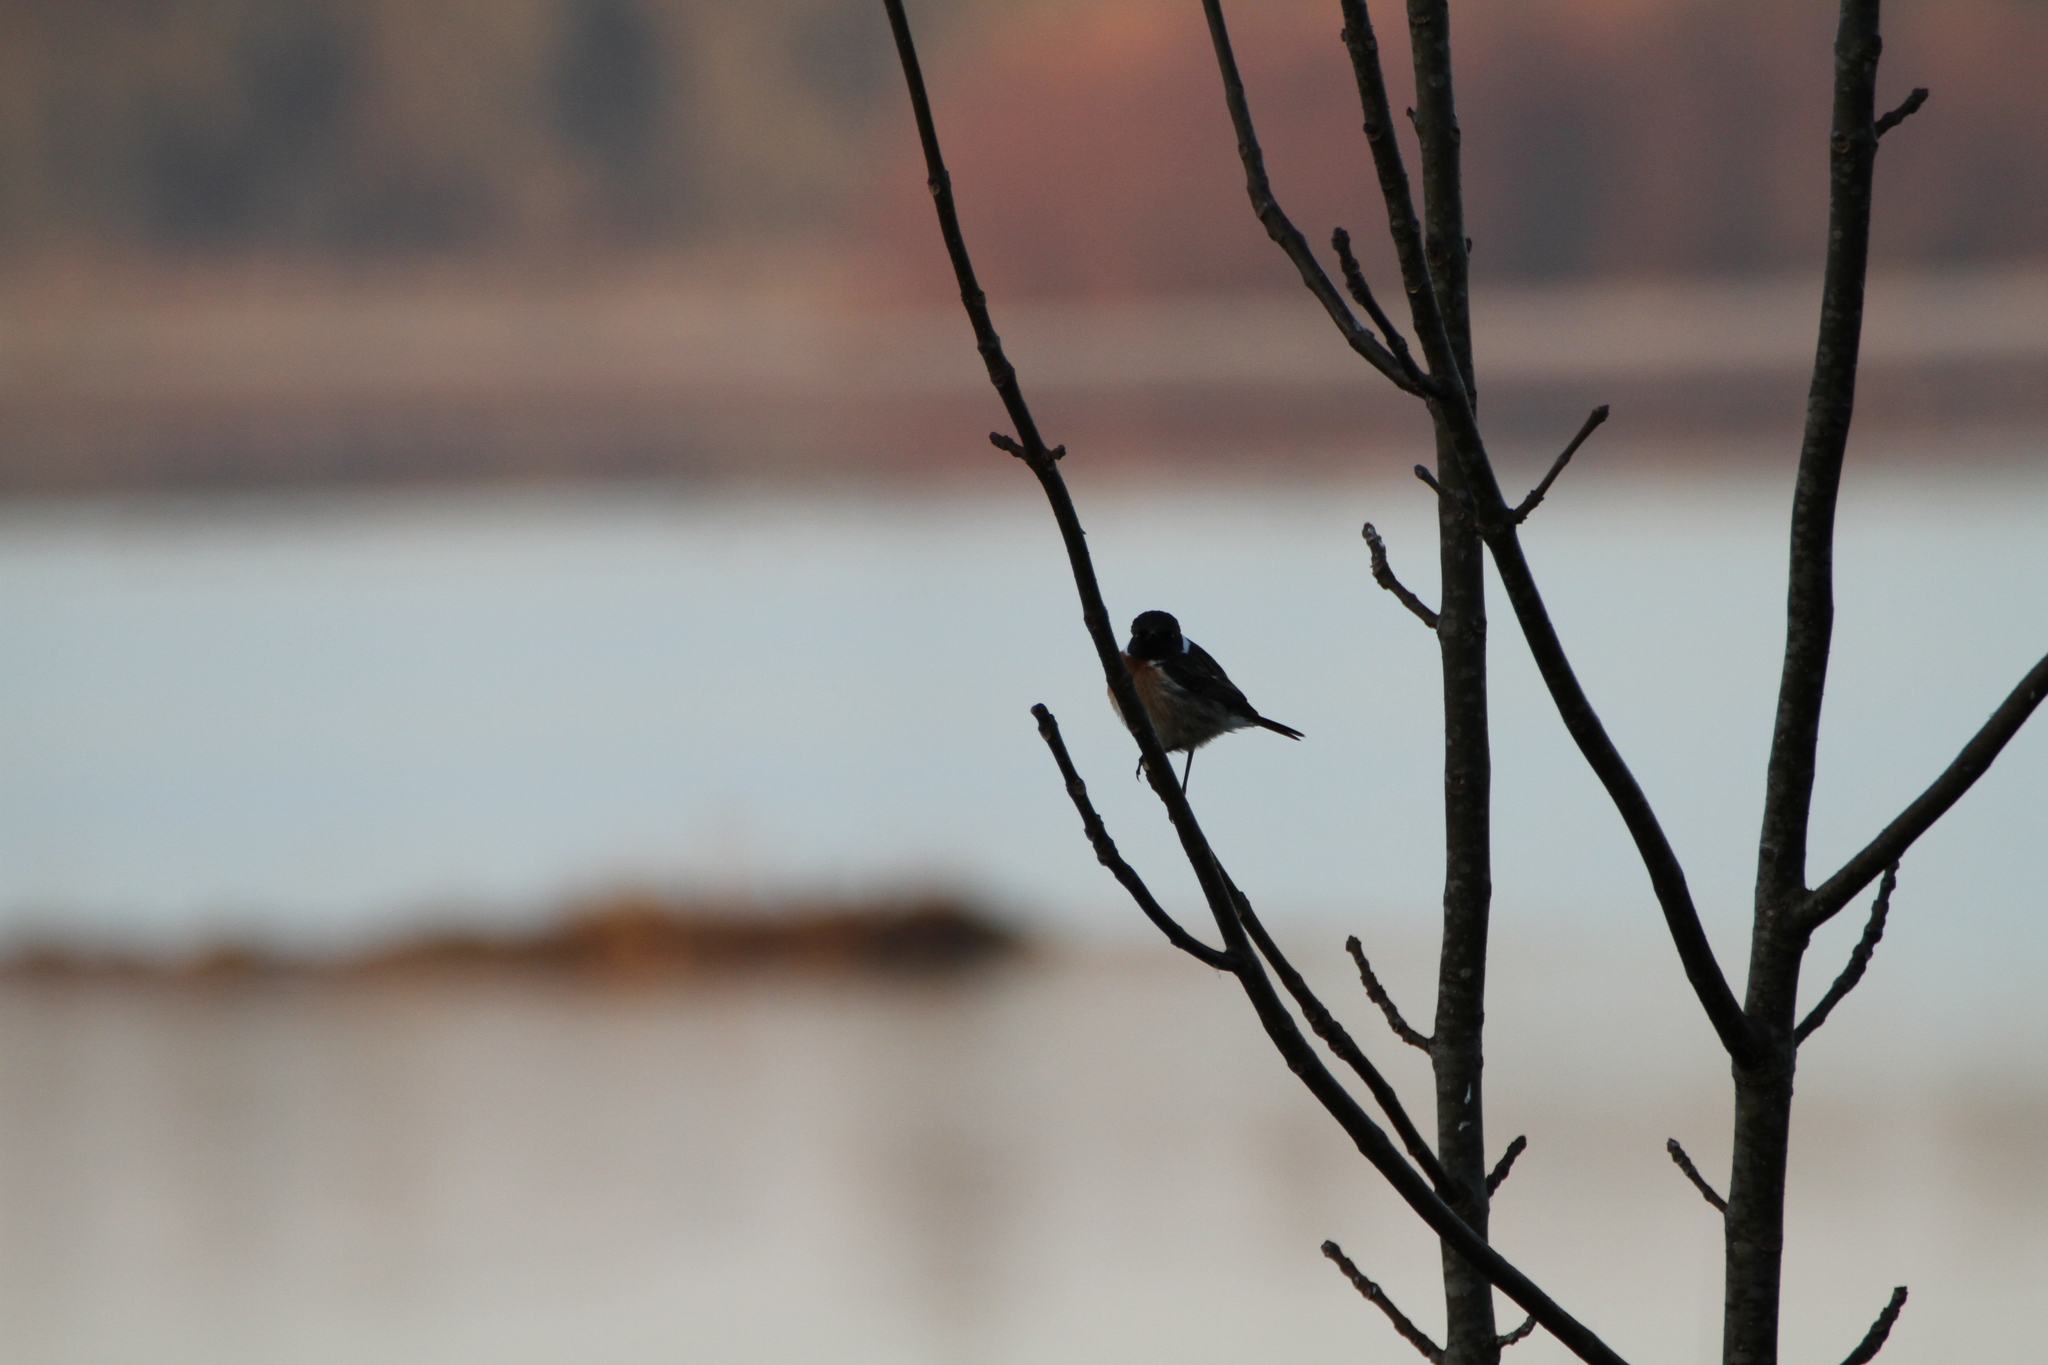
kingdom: Animalia
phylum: Chordata
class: Aves
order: Passeriformes
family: Muscicapidae
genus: Saxicola
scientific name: Saxicola rubicola
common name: European stonechat
